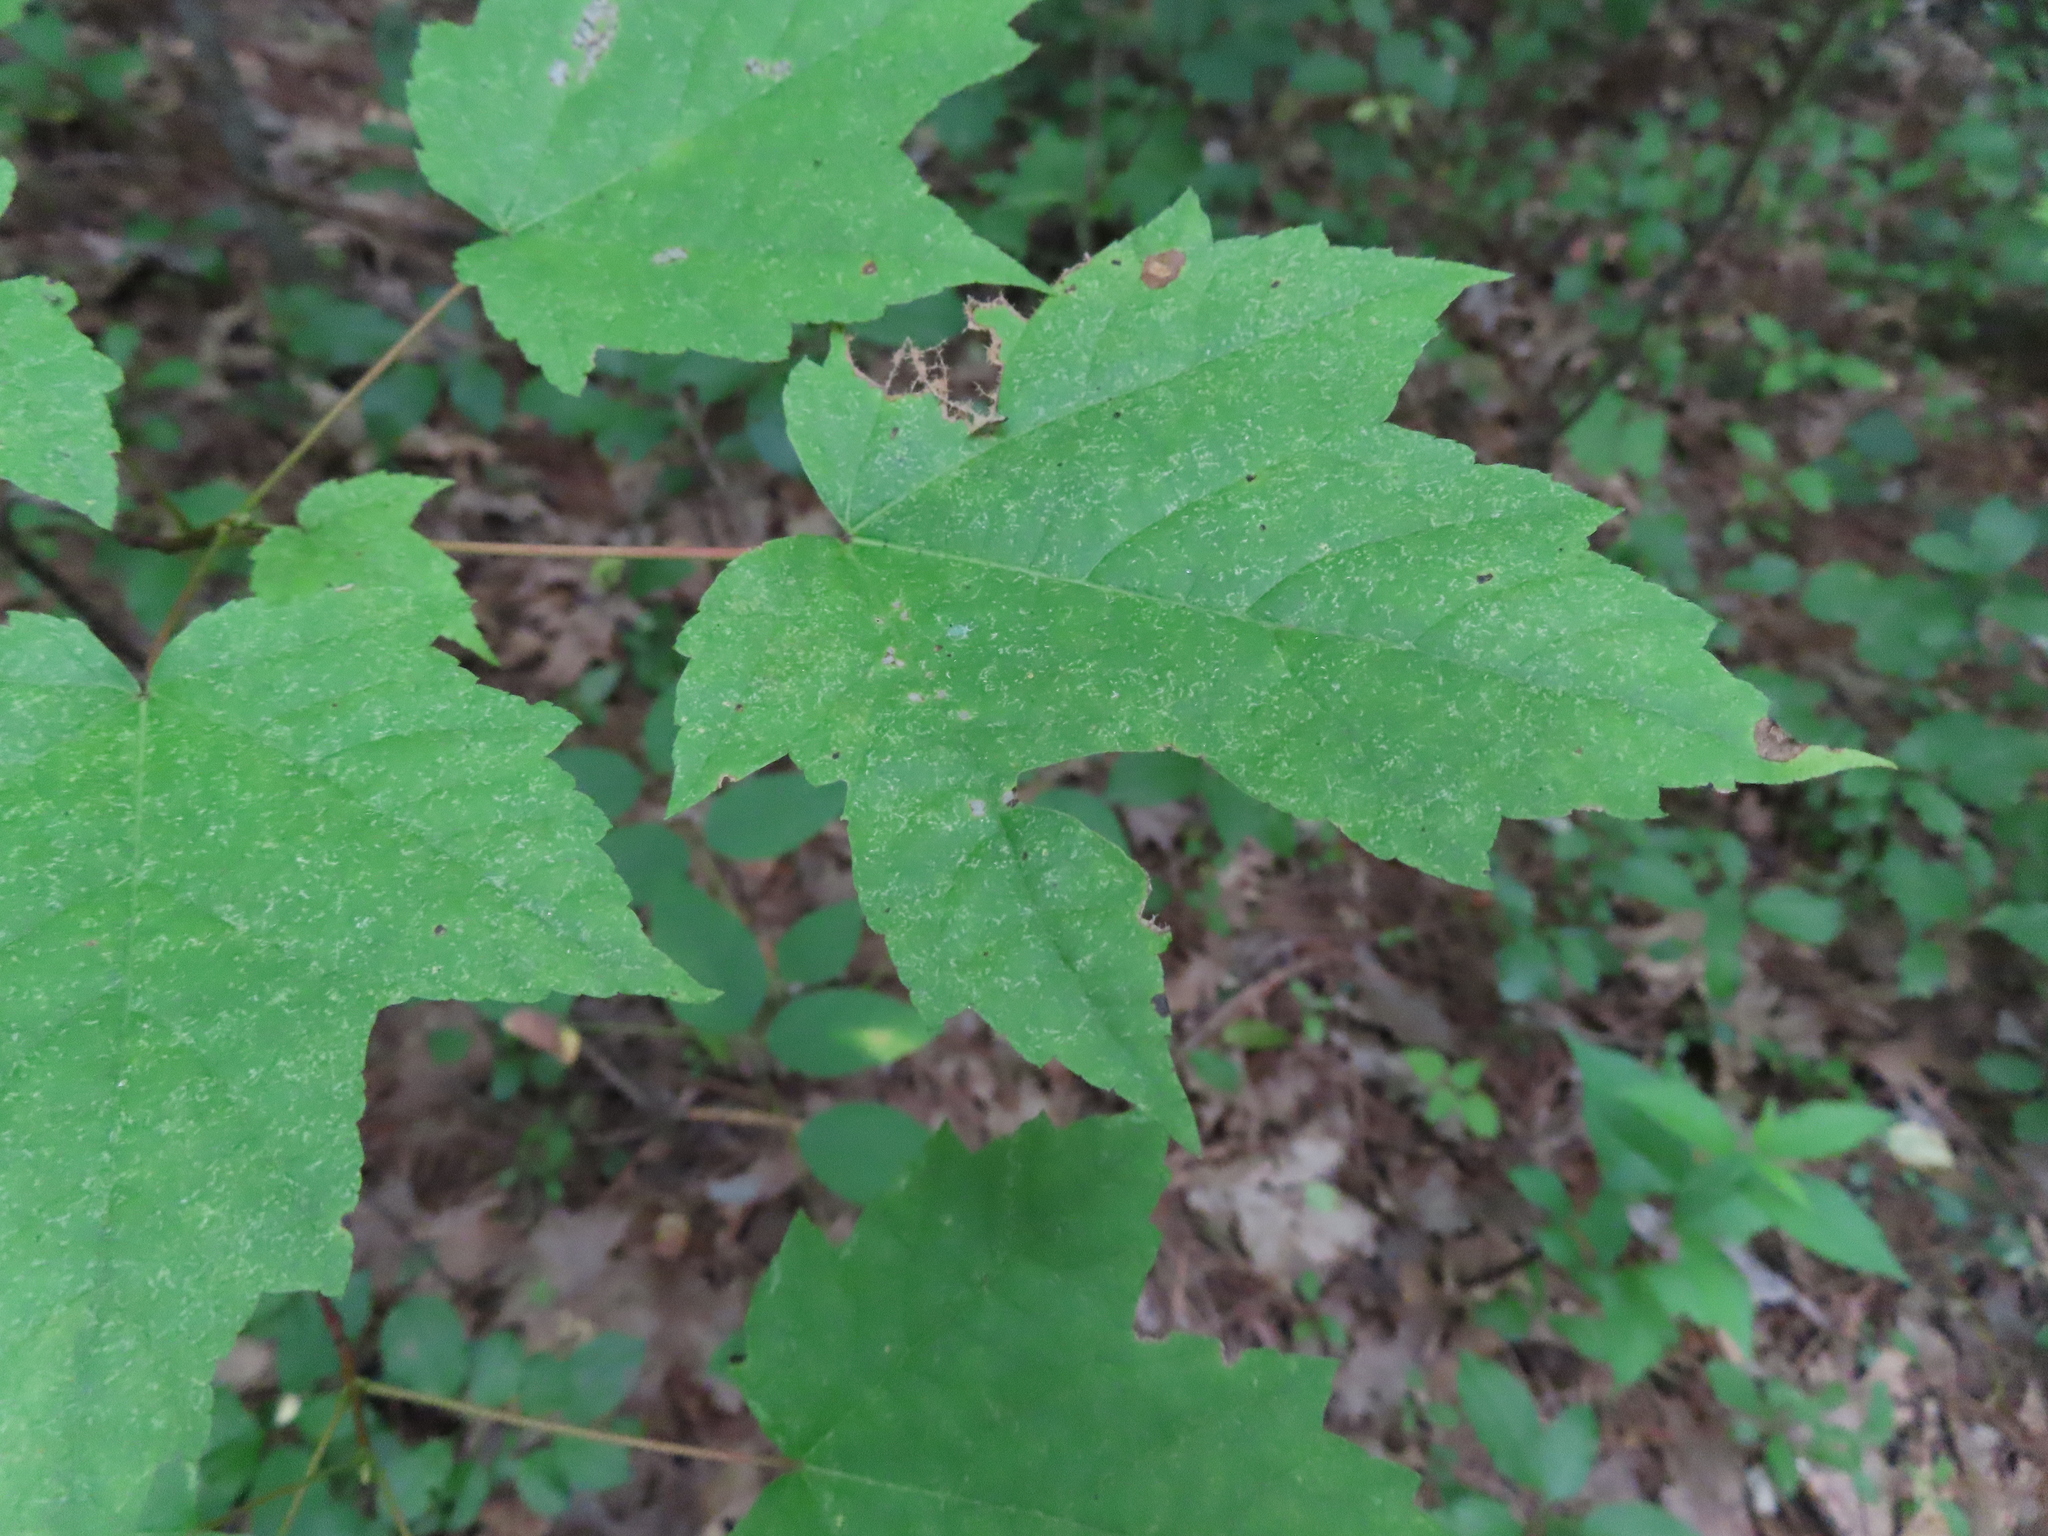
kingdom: Plantae
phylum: Tracheophyta
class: Magnoliopsida
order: Sapindales
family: Sapindaceae
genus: Acer
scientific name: Acer rubrum
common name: Red maple
